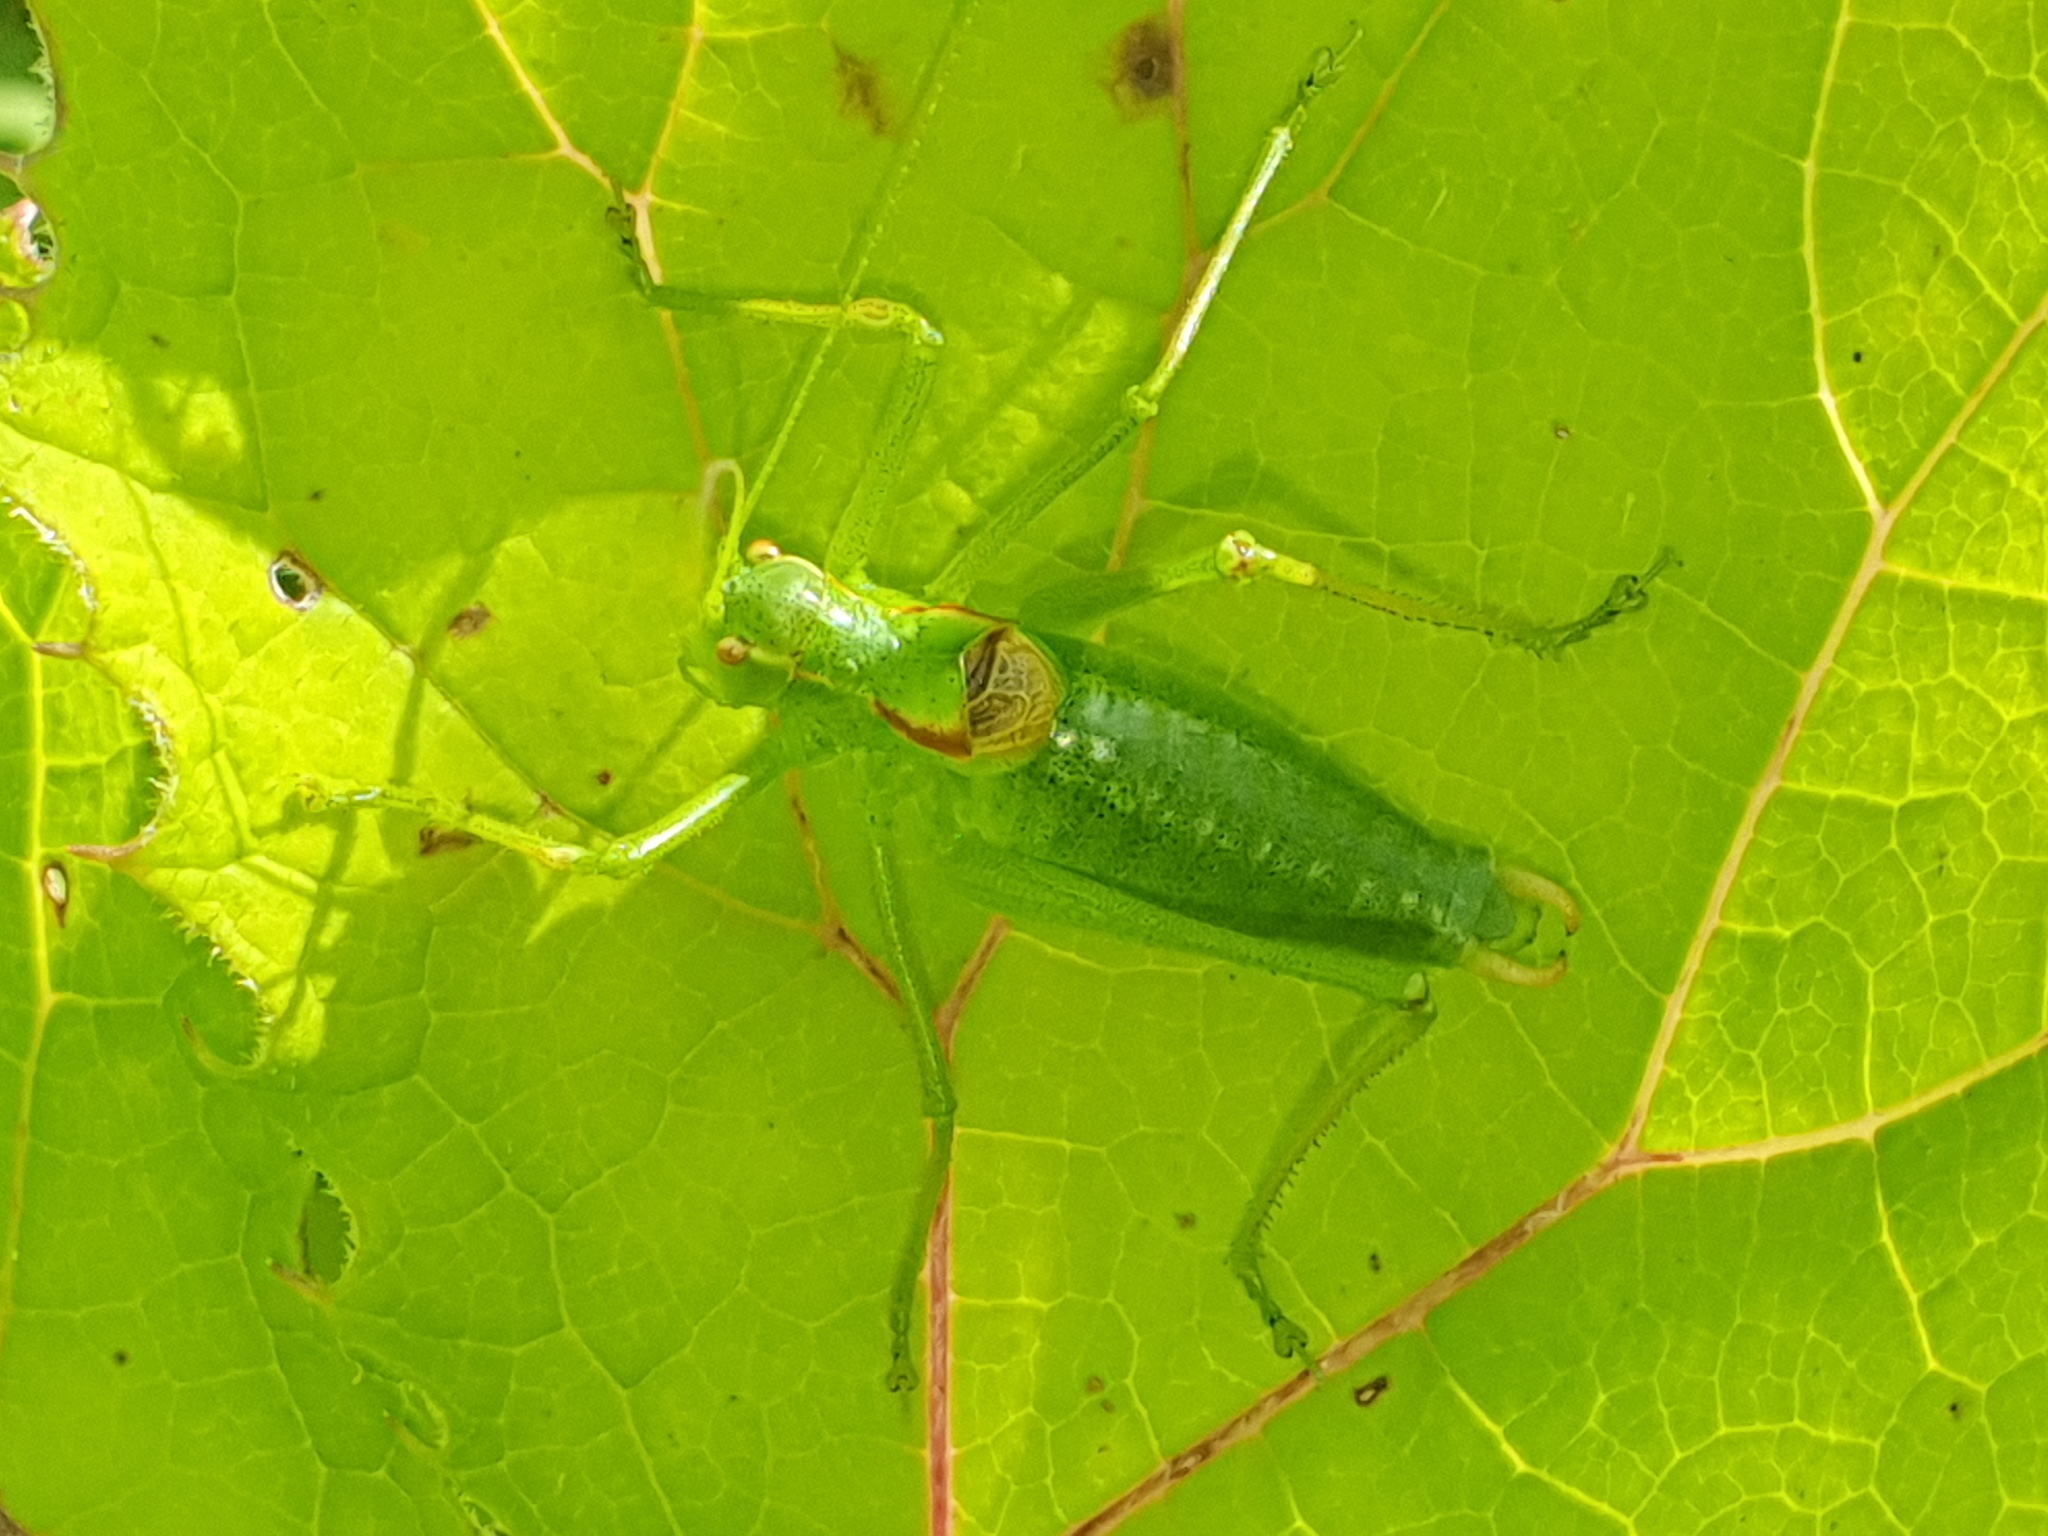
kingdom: Animalia
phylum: Arthropoda
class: Insecta
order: Orthoptera
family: Tettigoniidae
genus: Poecilimon
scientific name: Poecilimon gracilis
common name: Slender bright bush-cricket
